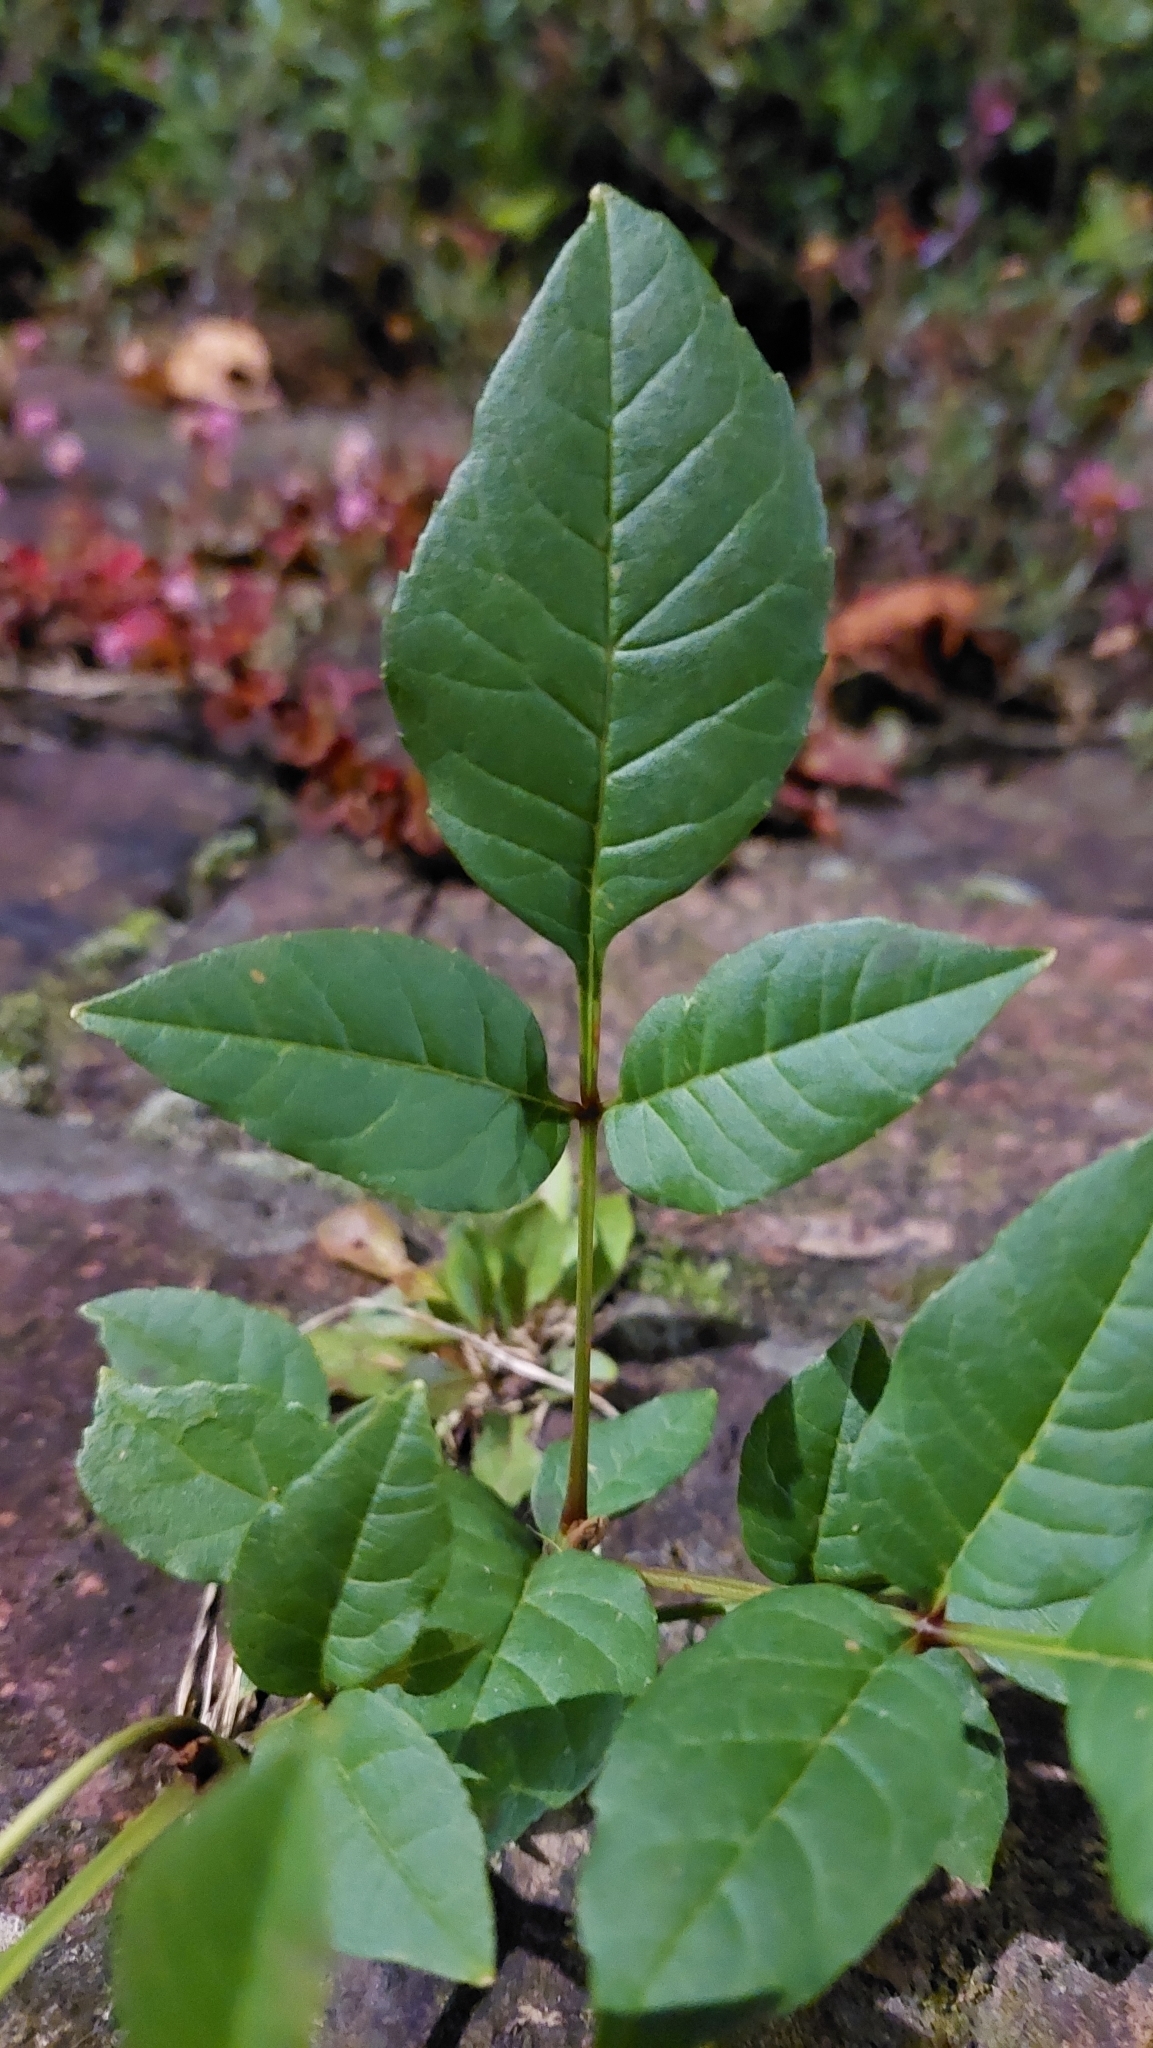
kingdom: Plantae
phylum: Tracheophyta
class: Magnoliopsida
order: Lamiales
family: Oleaceae
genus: Fraxinus
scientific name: Fraxinus uhdei
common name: Shamel ash
